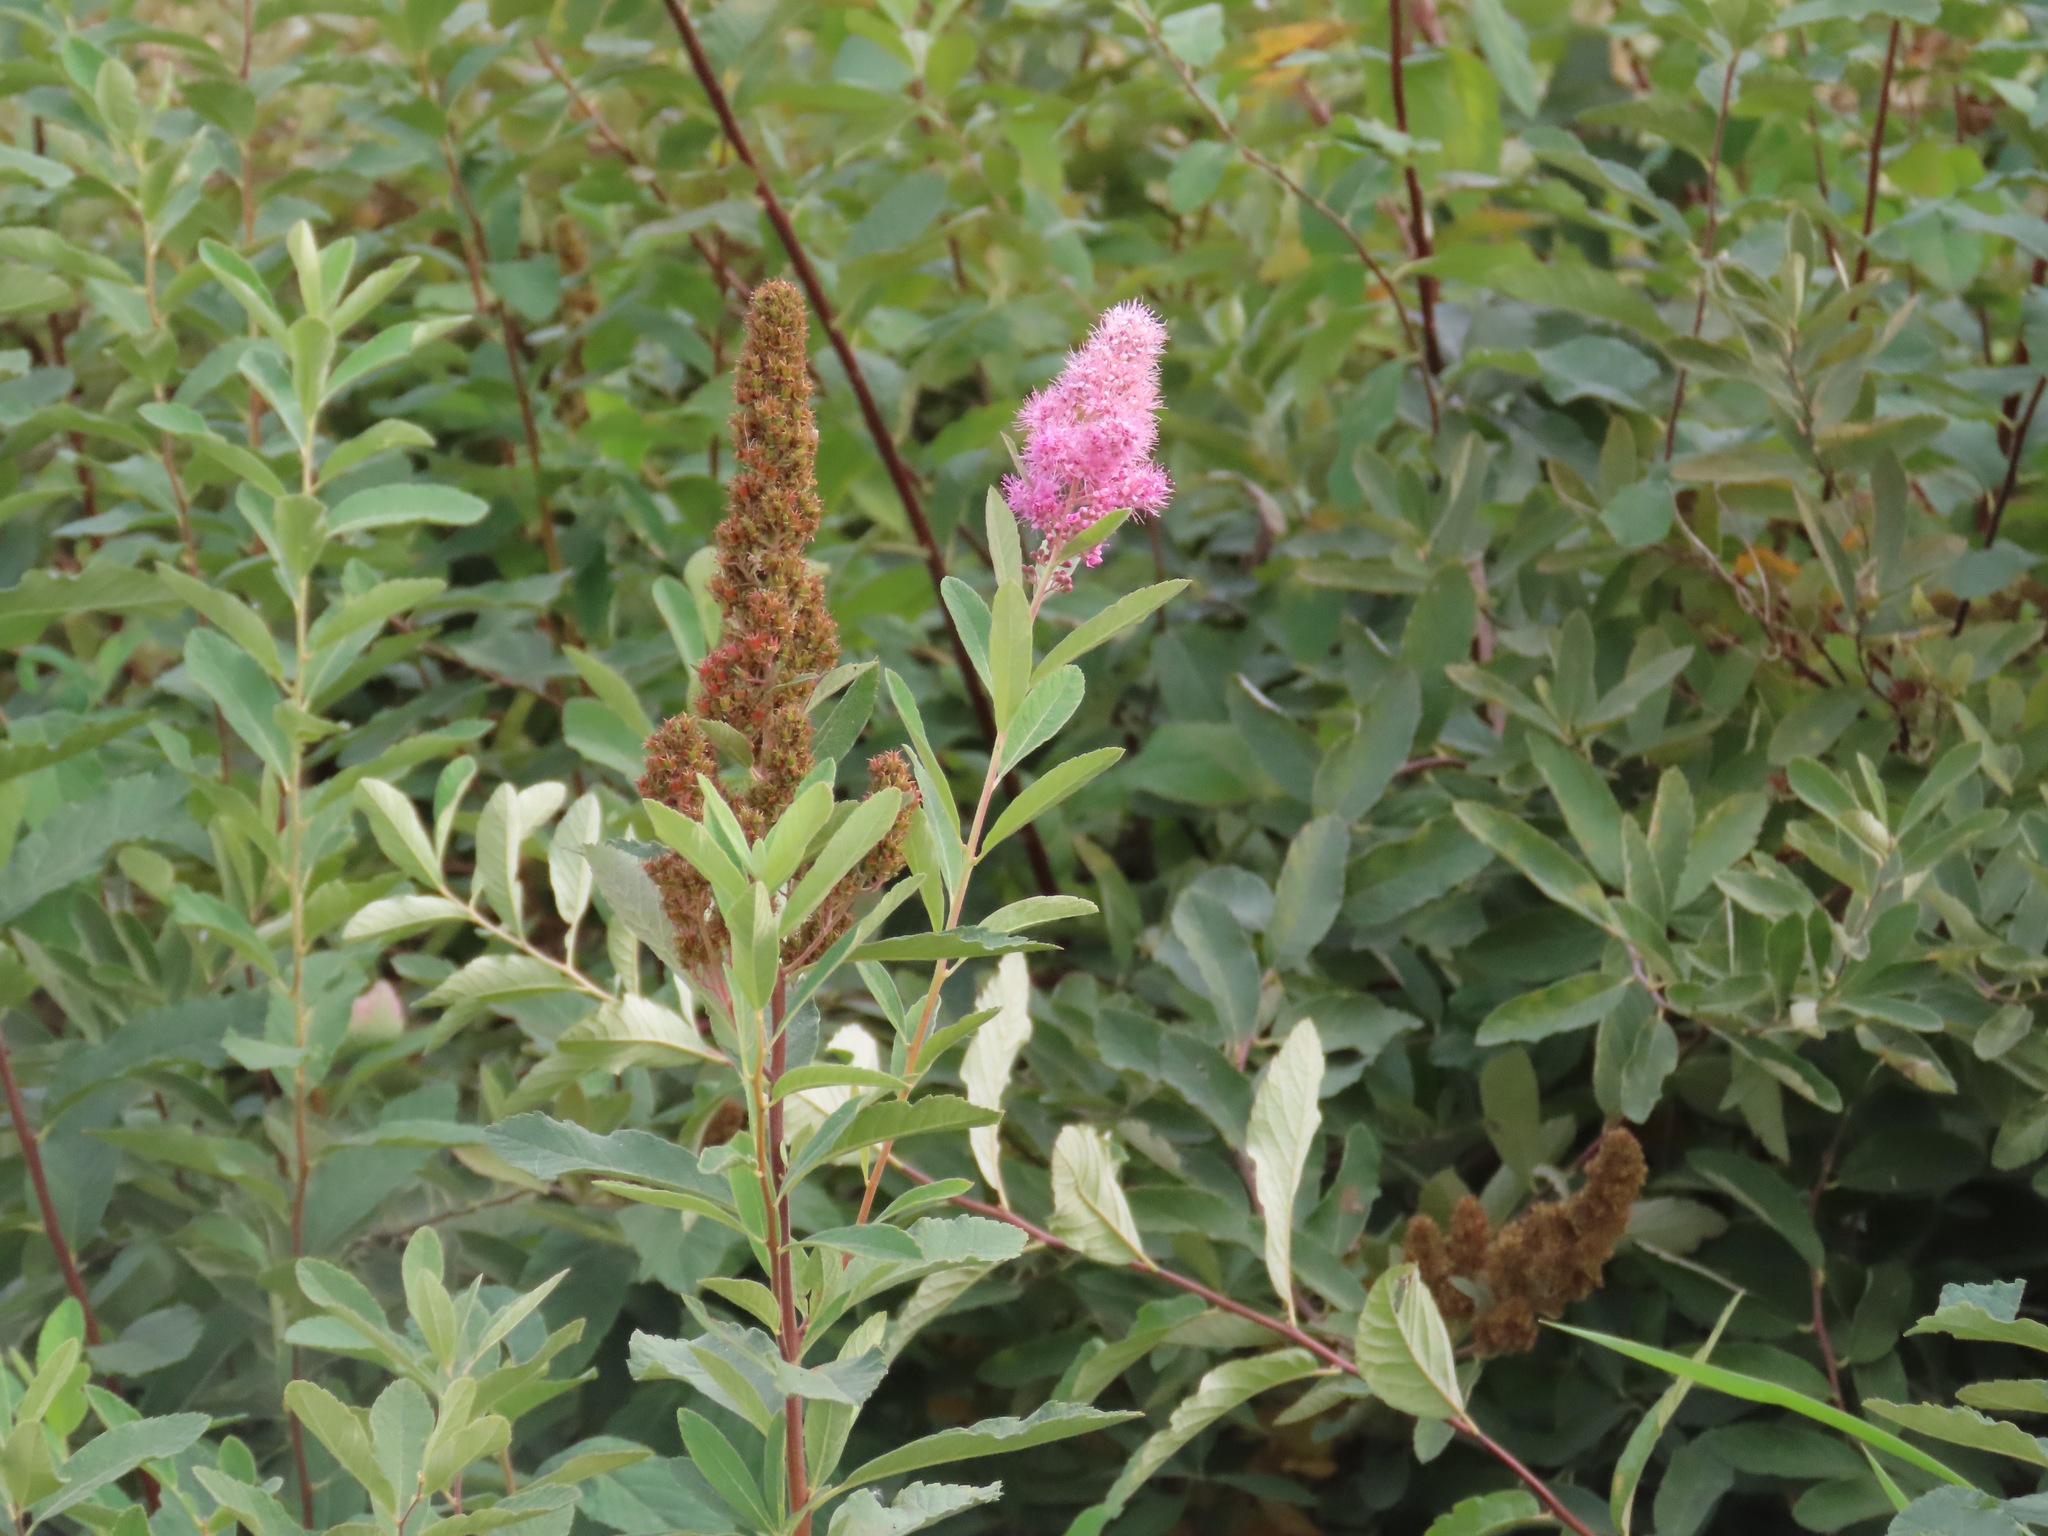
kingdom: Plantae
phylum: Tracheophyta
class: Magnoliopsida
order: Rosales
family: Rosaceae
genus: Spiraea
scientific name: Spiraea douglasii
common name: Steeplebush
